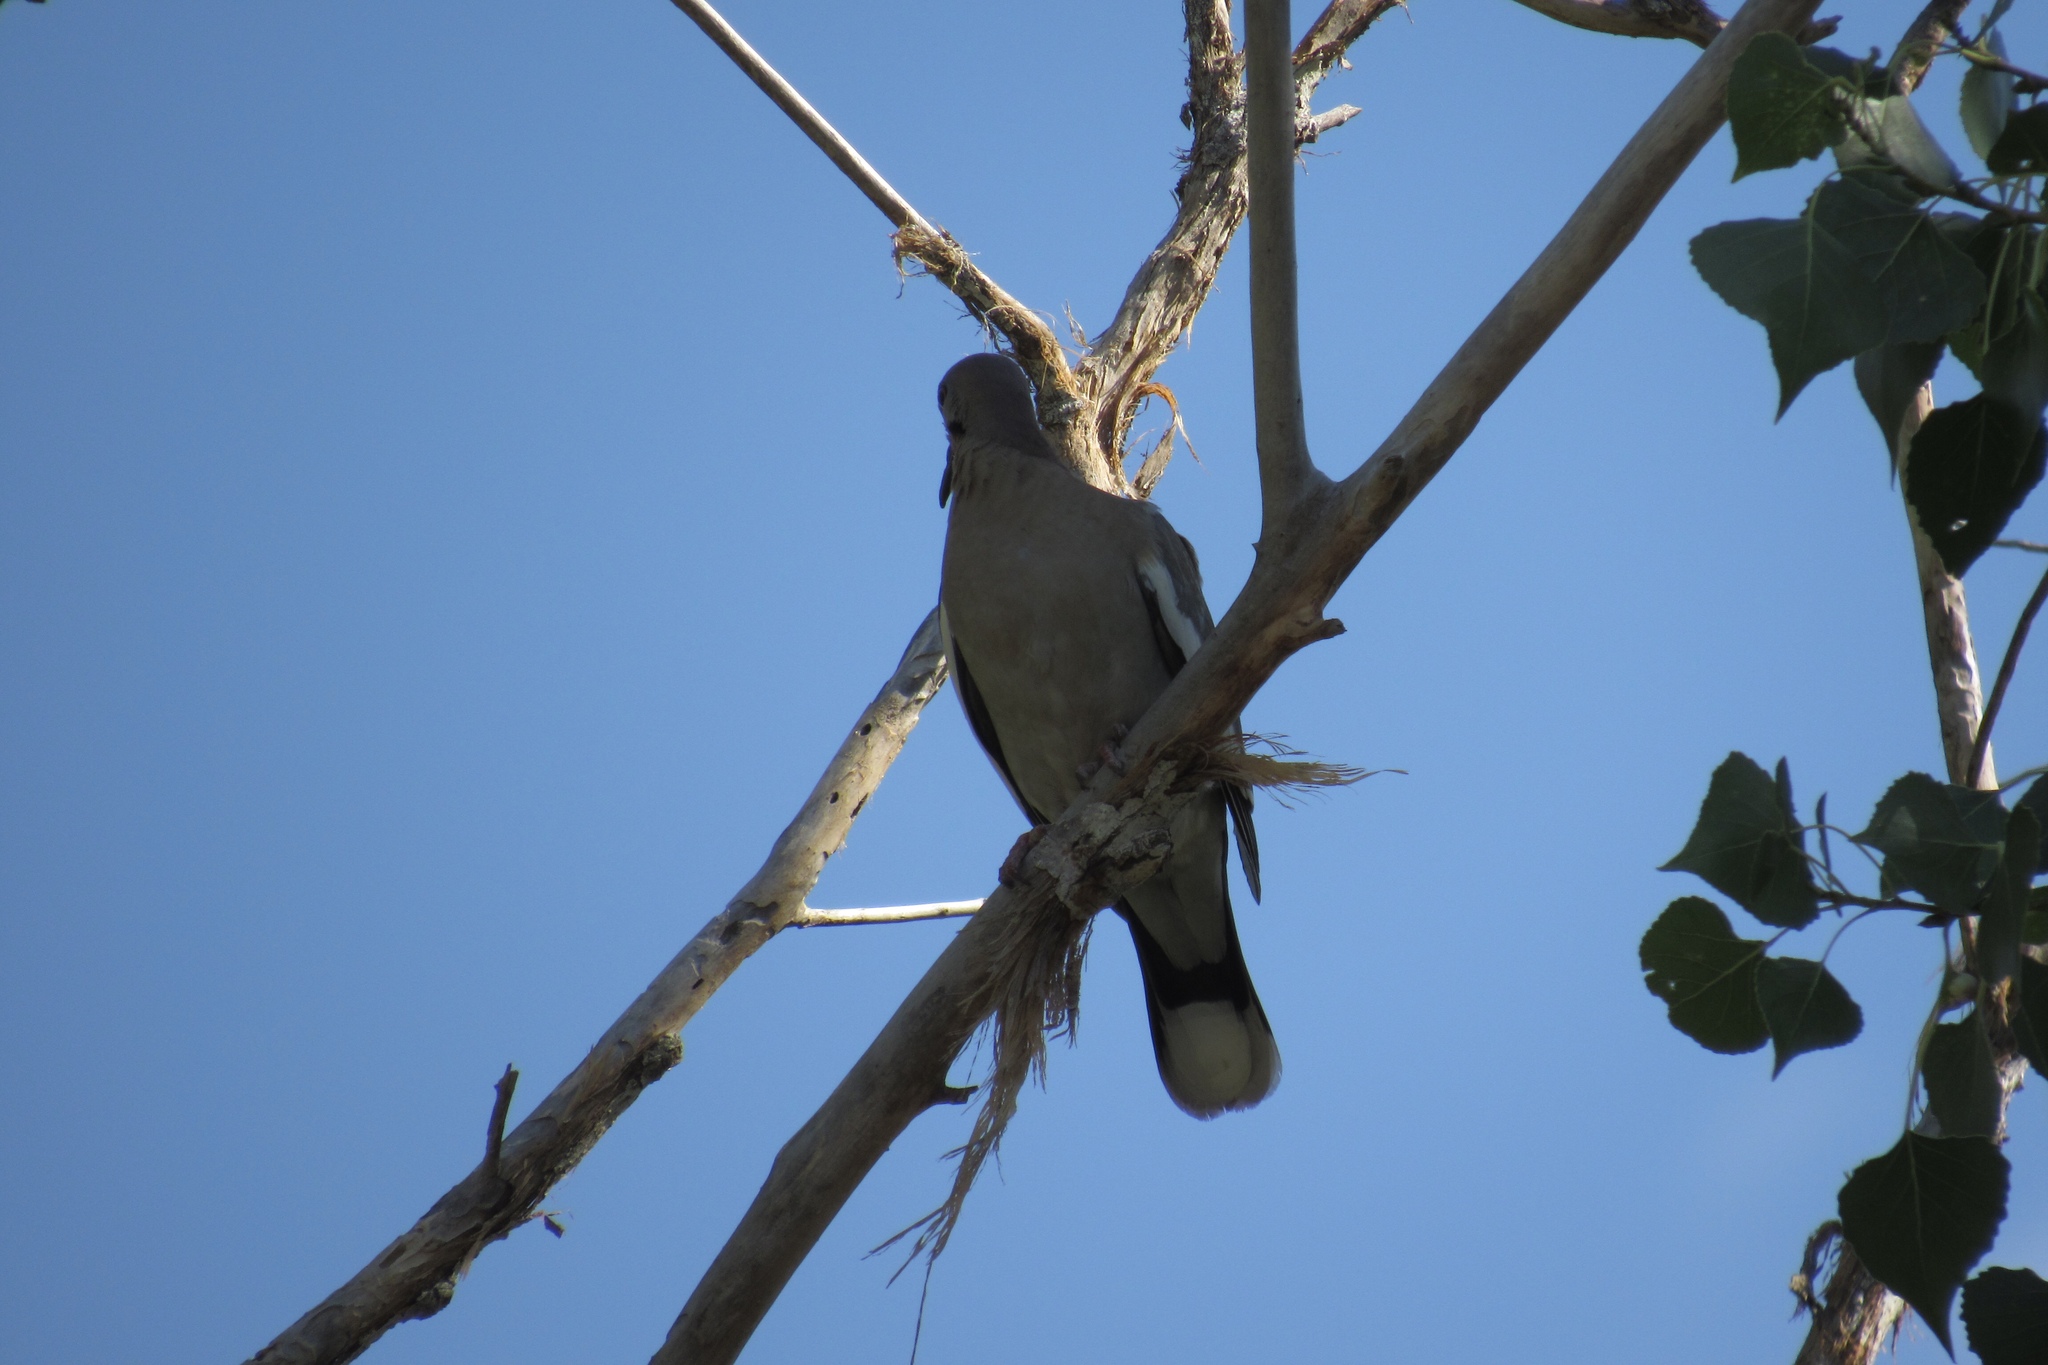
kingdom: Animalia
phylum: Chordata
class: Aves
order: Columbiformes
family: Columbidae
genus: Zenaida
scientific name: Zenaida asiatica
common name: White-winged dove
